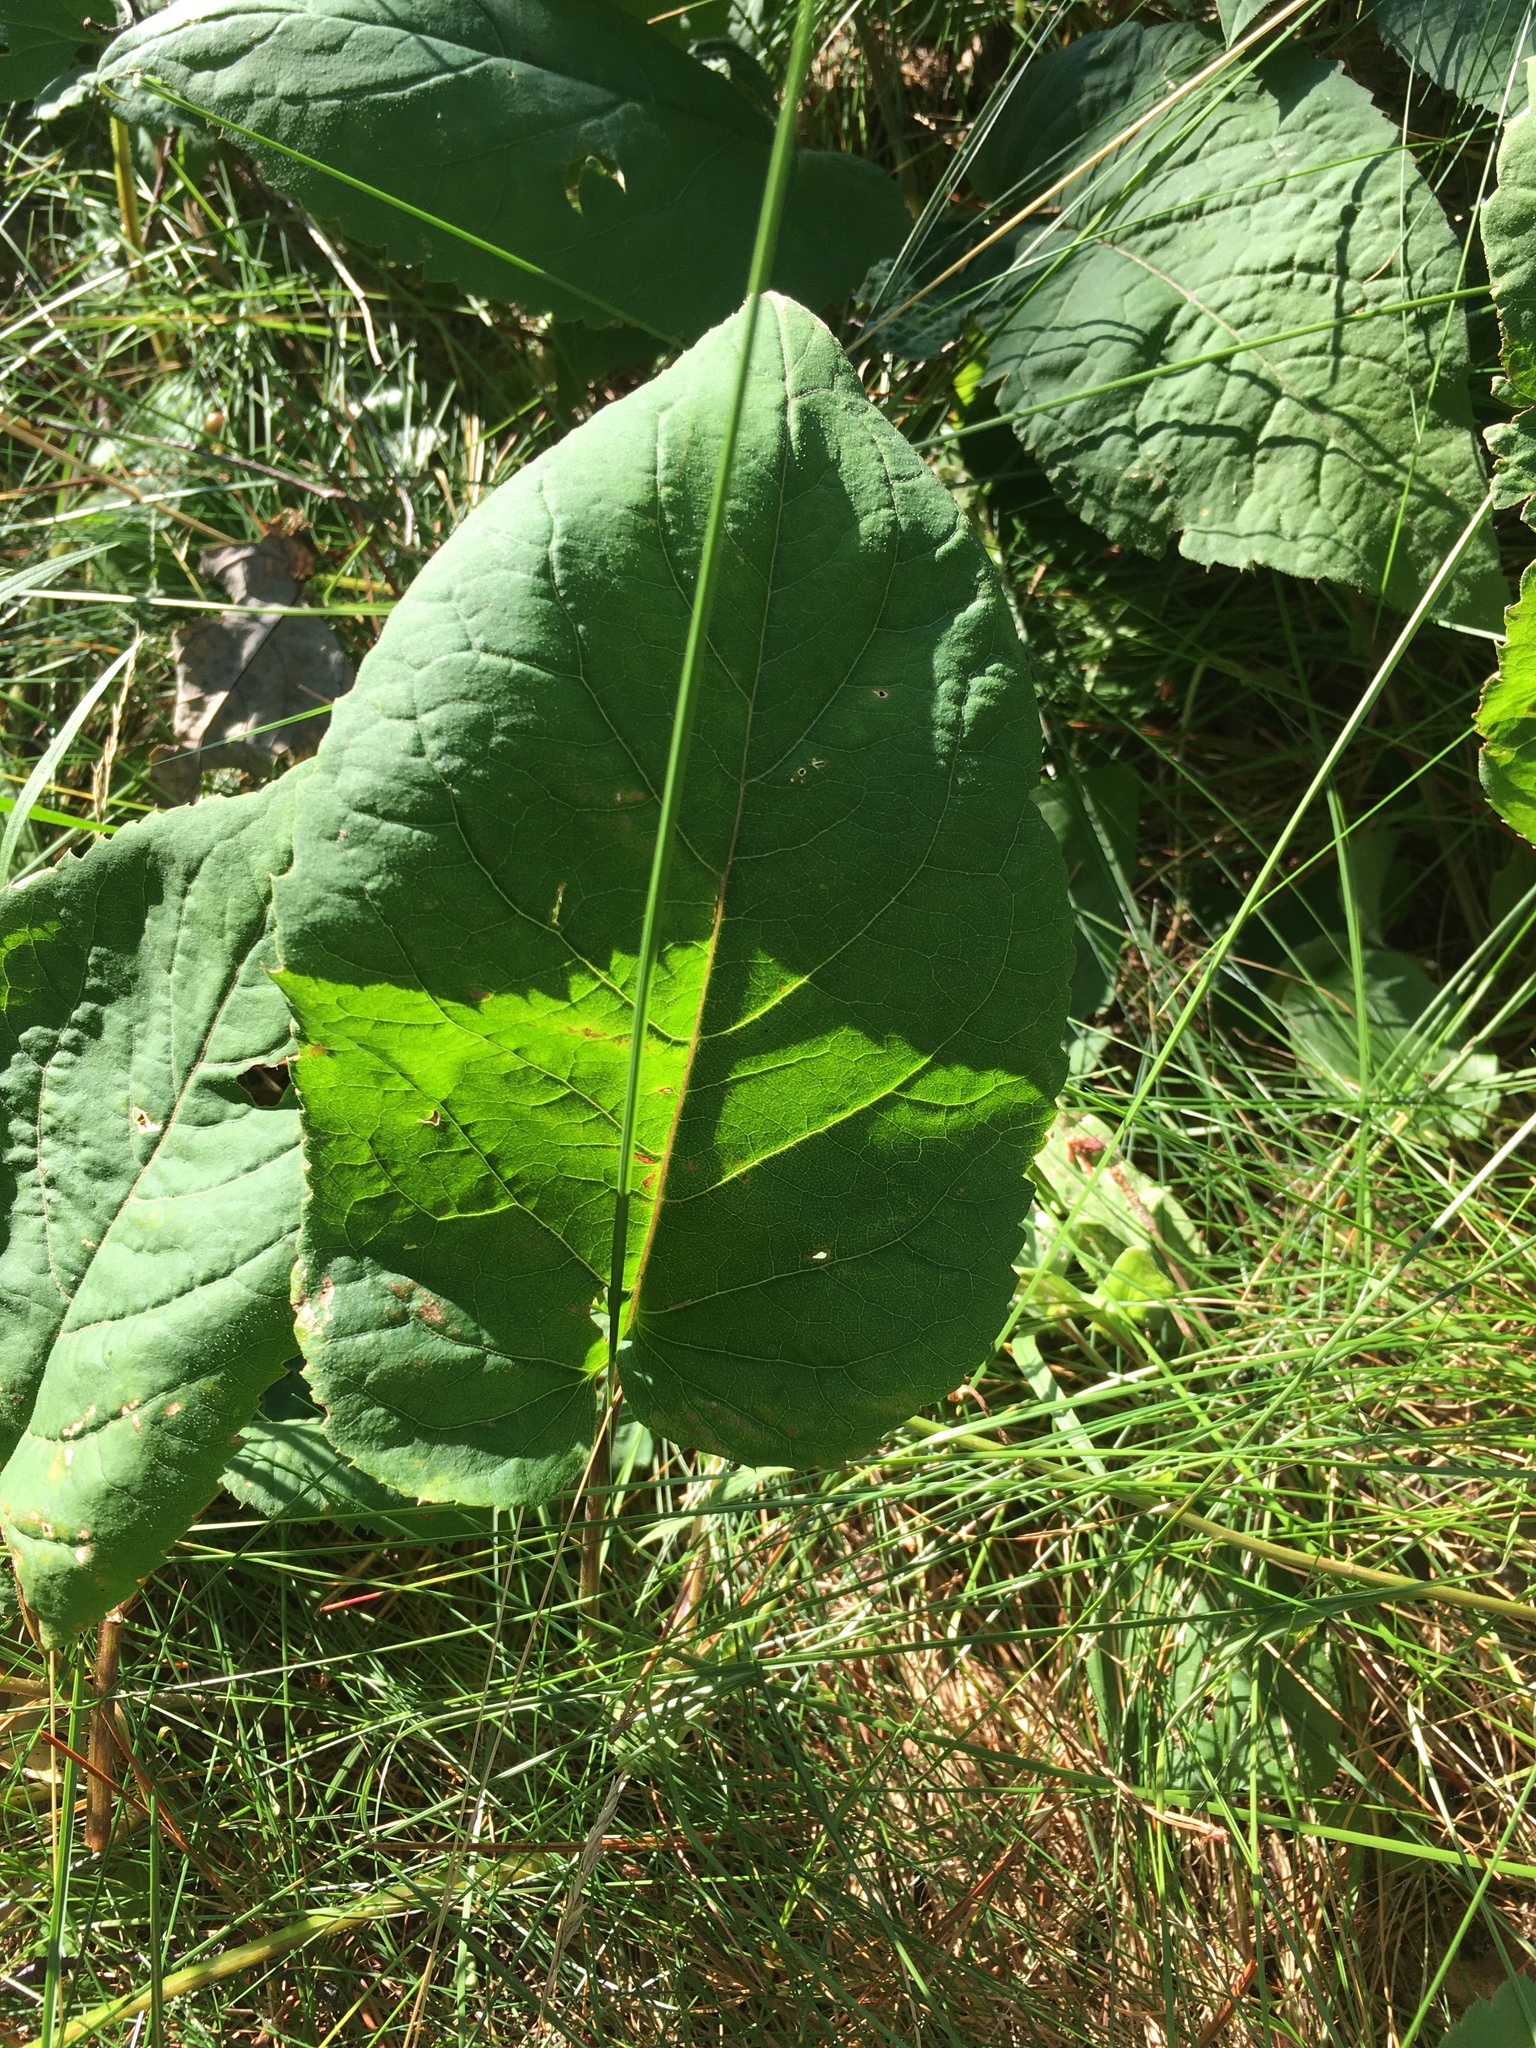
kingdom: Plantae
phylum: Tracheophyta
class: Magnoliopsida
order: Asterales
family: Asteraceae
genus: Eurybia
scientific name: Eurybia macrophylla
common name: Big-leaved aster
